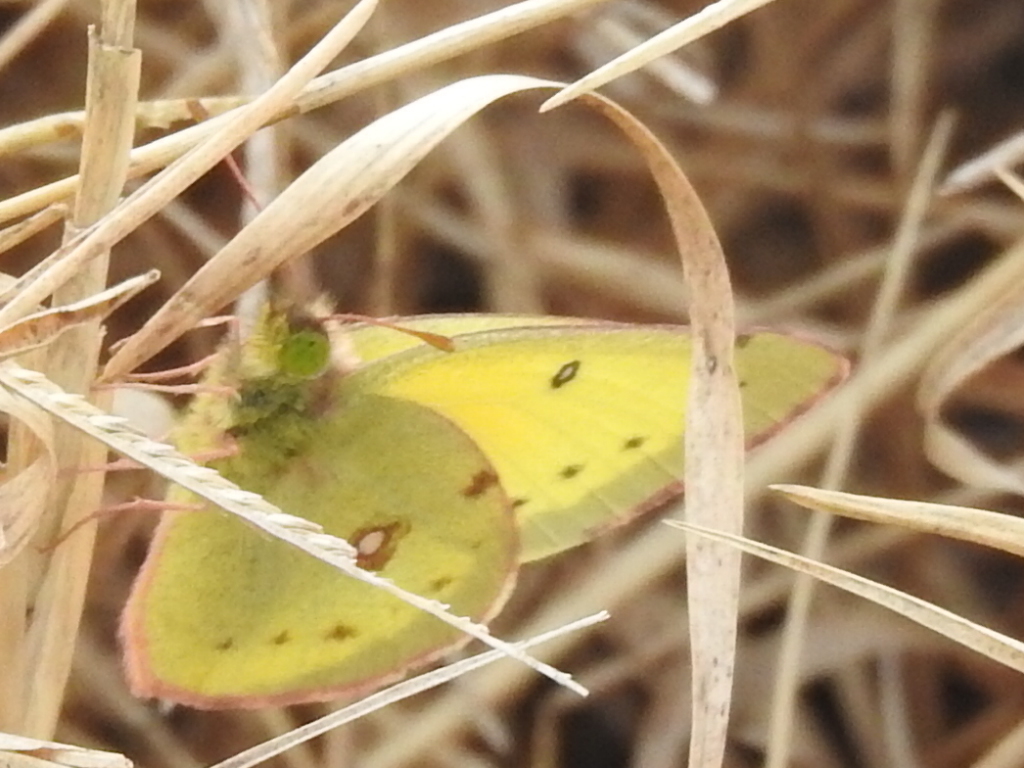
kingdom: Animalia
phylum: Arthropoda
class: Insecta
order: Lepidoptera
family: Pieridae
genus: Colias
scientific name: Colias eurytheme
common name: Alfalfa butterfly
